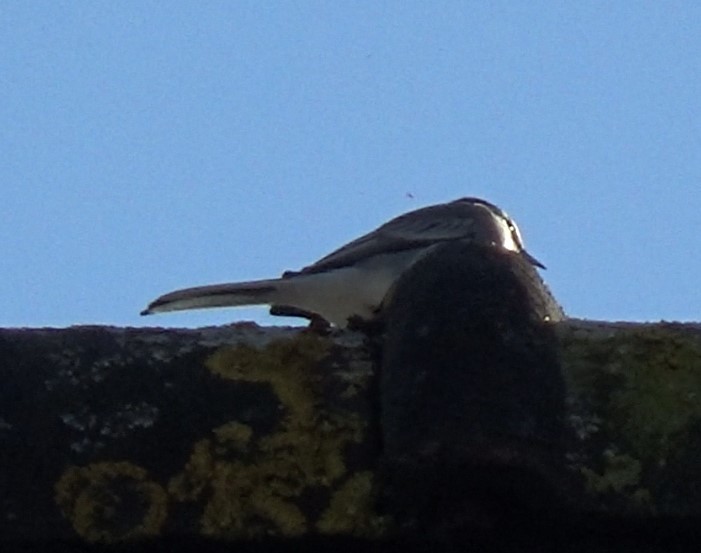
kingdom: Animalia
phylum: Chordata
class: Aves
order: Passeriformes
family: Motacillidae
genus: Motacilla
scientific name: Motacilla alba
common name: White wagtail
